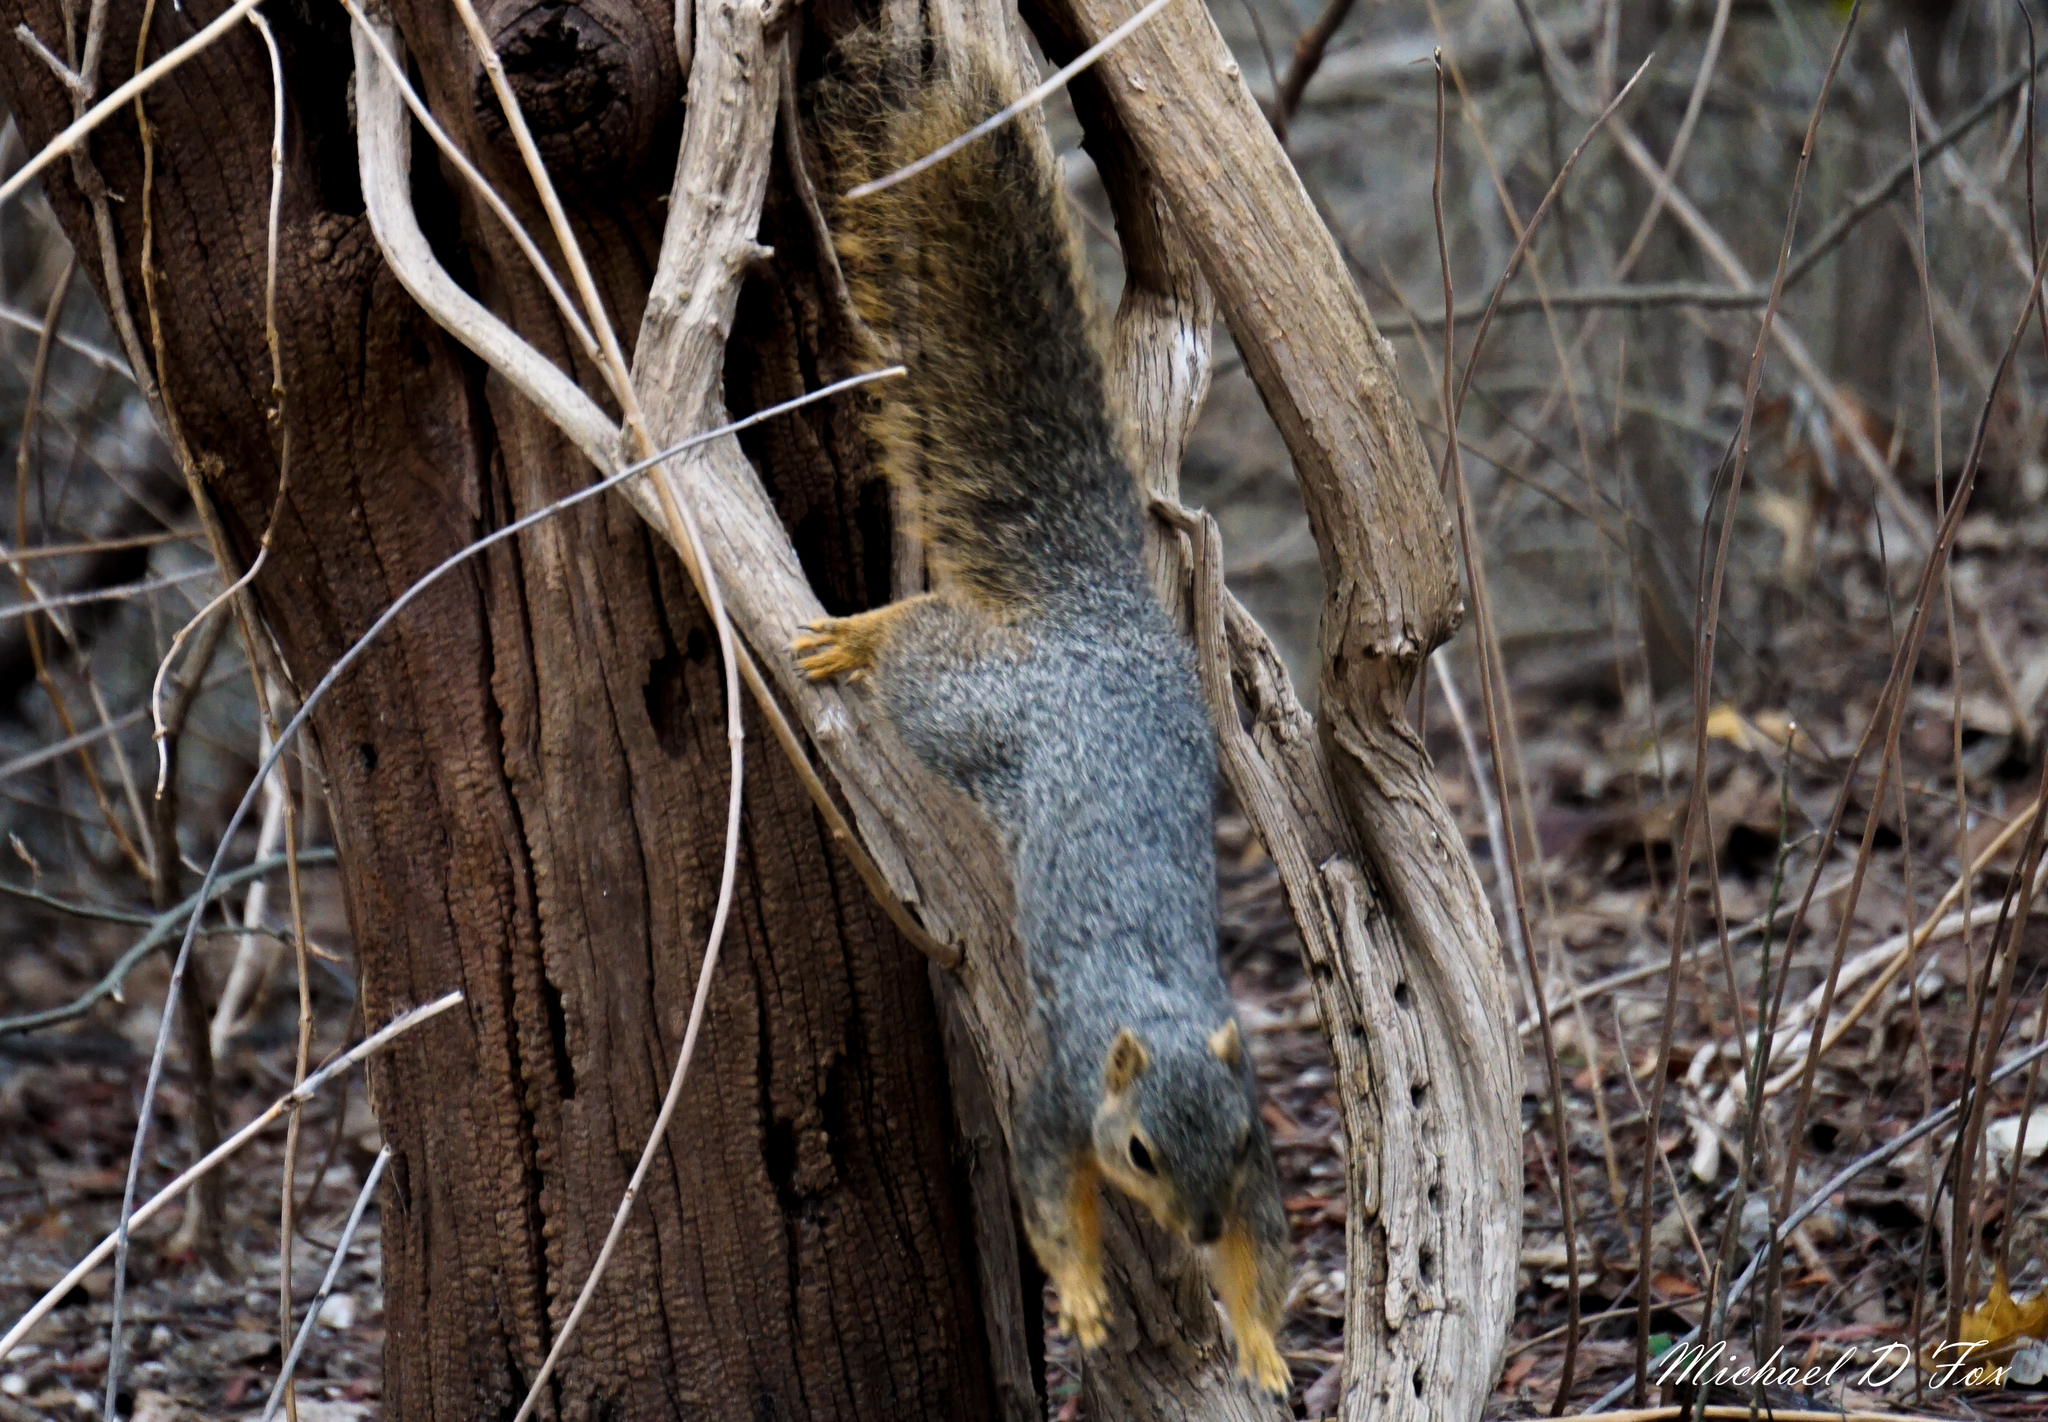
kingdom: Animalia
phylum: Chordata
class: Mammalia
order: Rodentia
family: Sciuridae
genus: Sciurus
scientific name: Sciurus niger
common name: Fox squirrel
